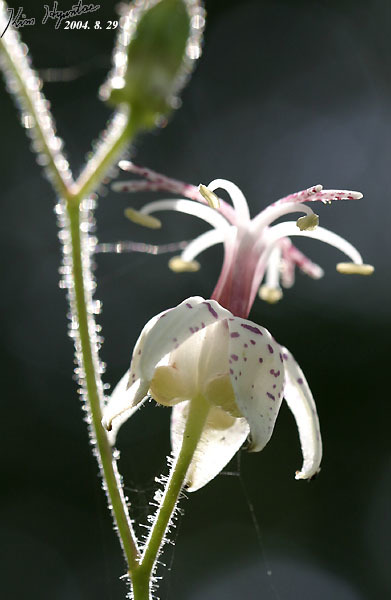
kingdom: Plantae
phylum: Tracheophyta
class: Liliopsida
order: Liliales
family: Liliaceae
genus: Tricyrtis
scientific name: Tricyrtis macropoda
